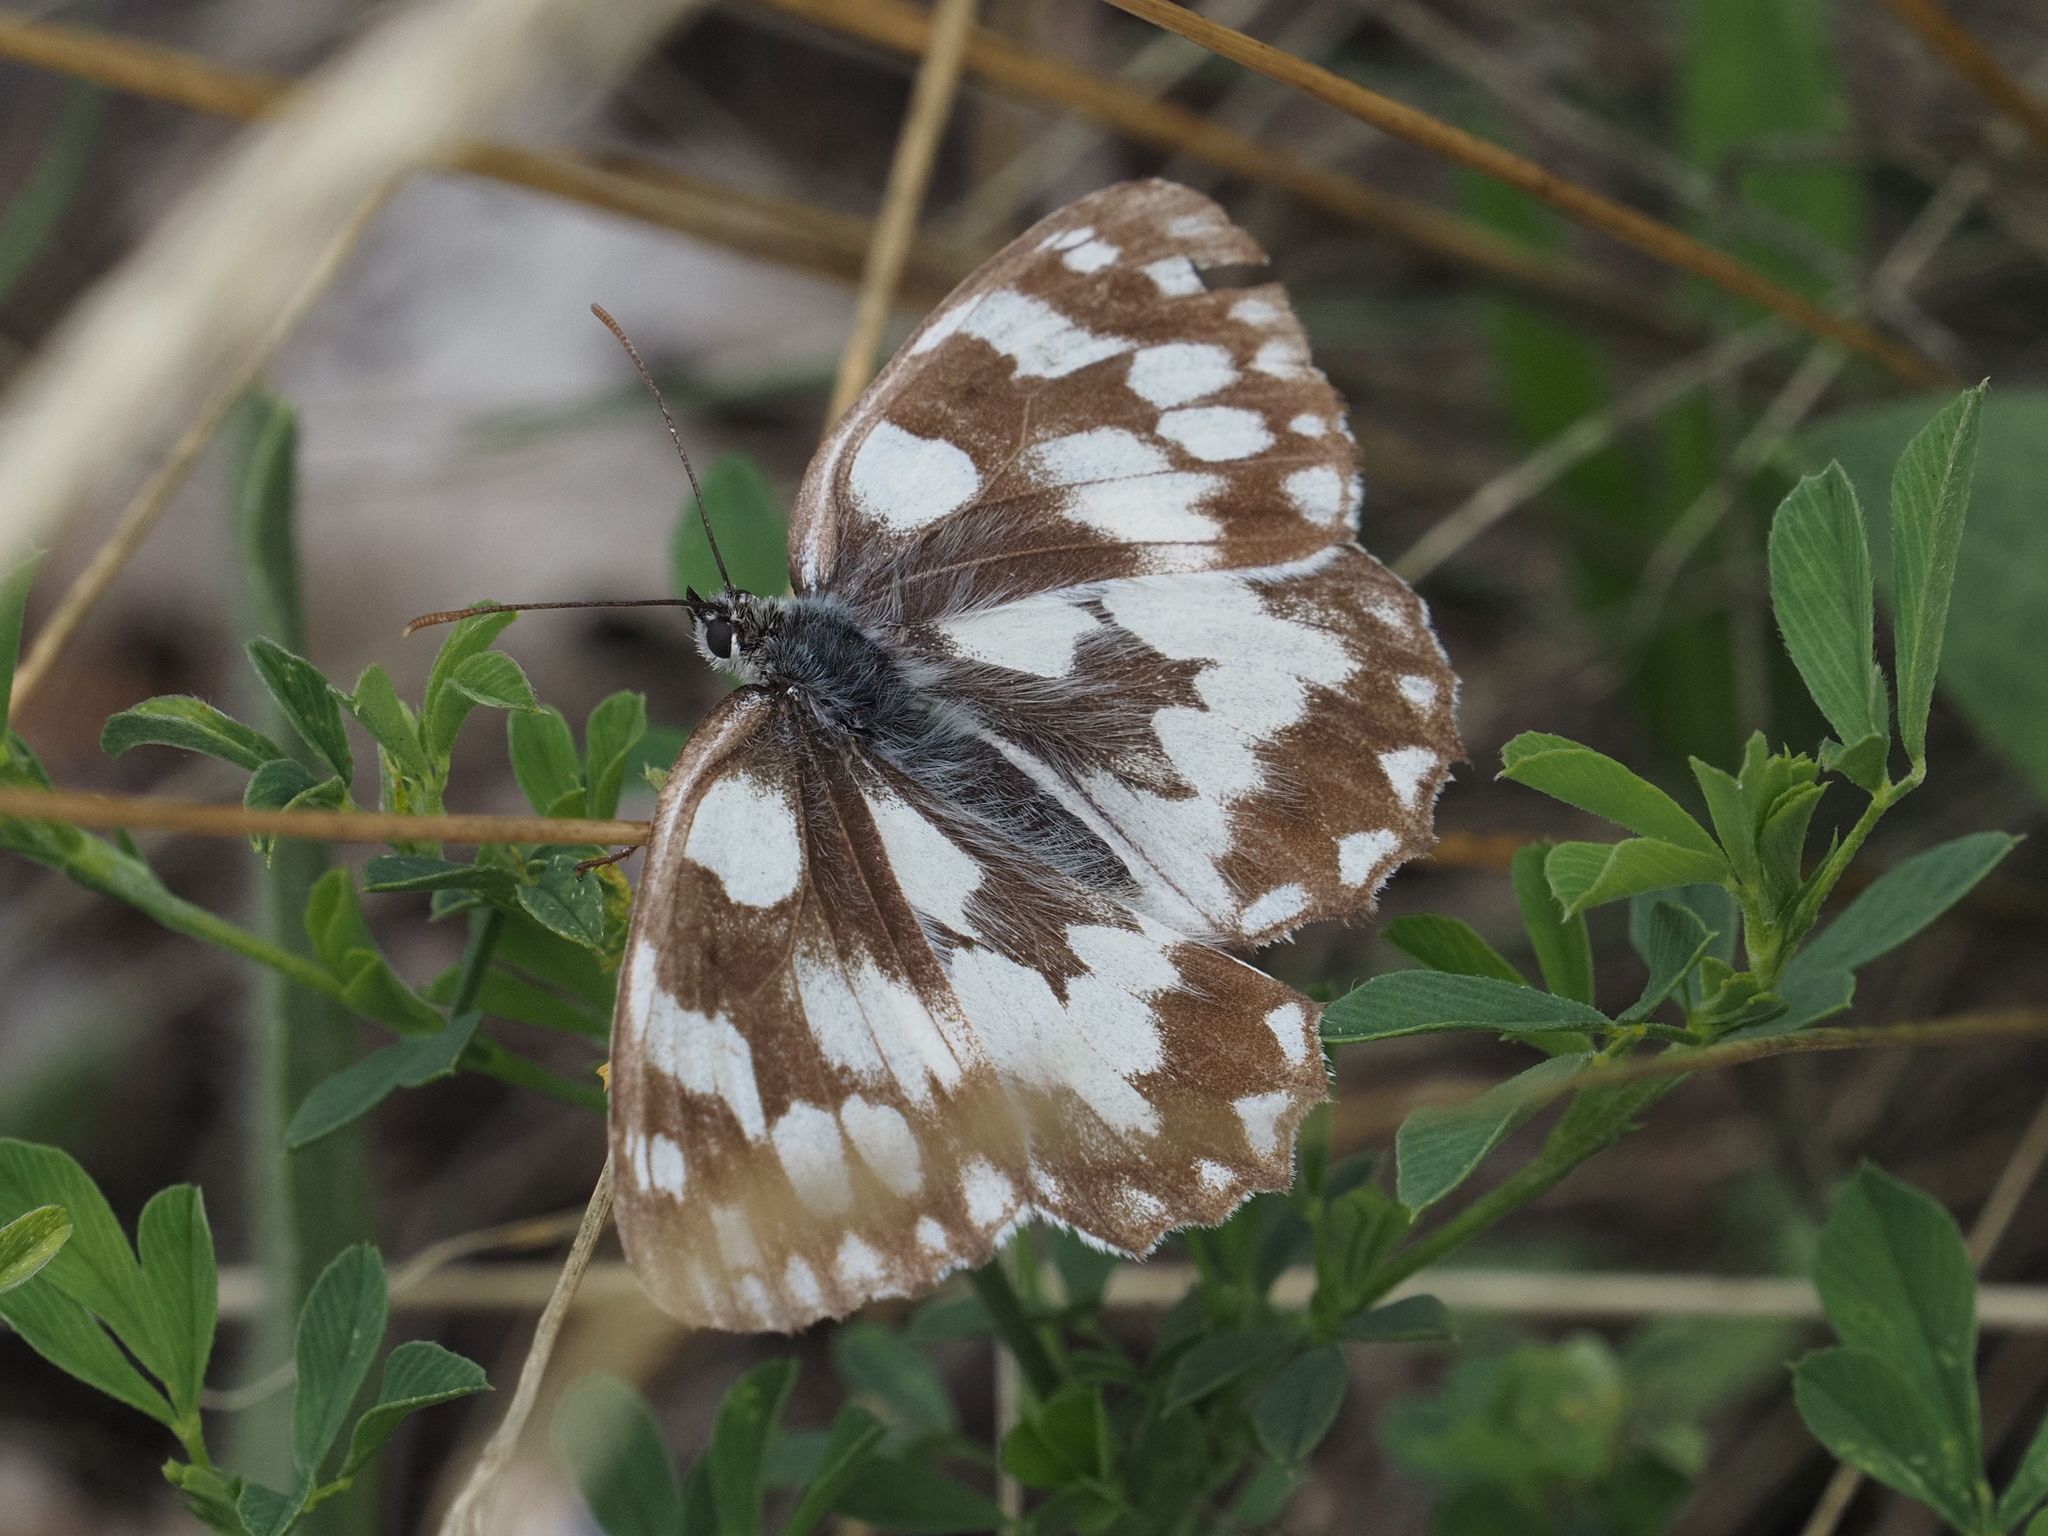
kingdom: Animalia
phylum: Arthropoda
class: Insecta
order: Lepidoptera
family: Nymphalidae
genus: Melanargia
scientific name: Melanargia galathea
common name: Marbled white
